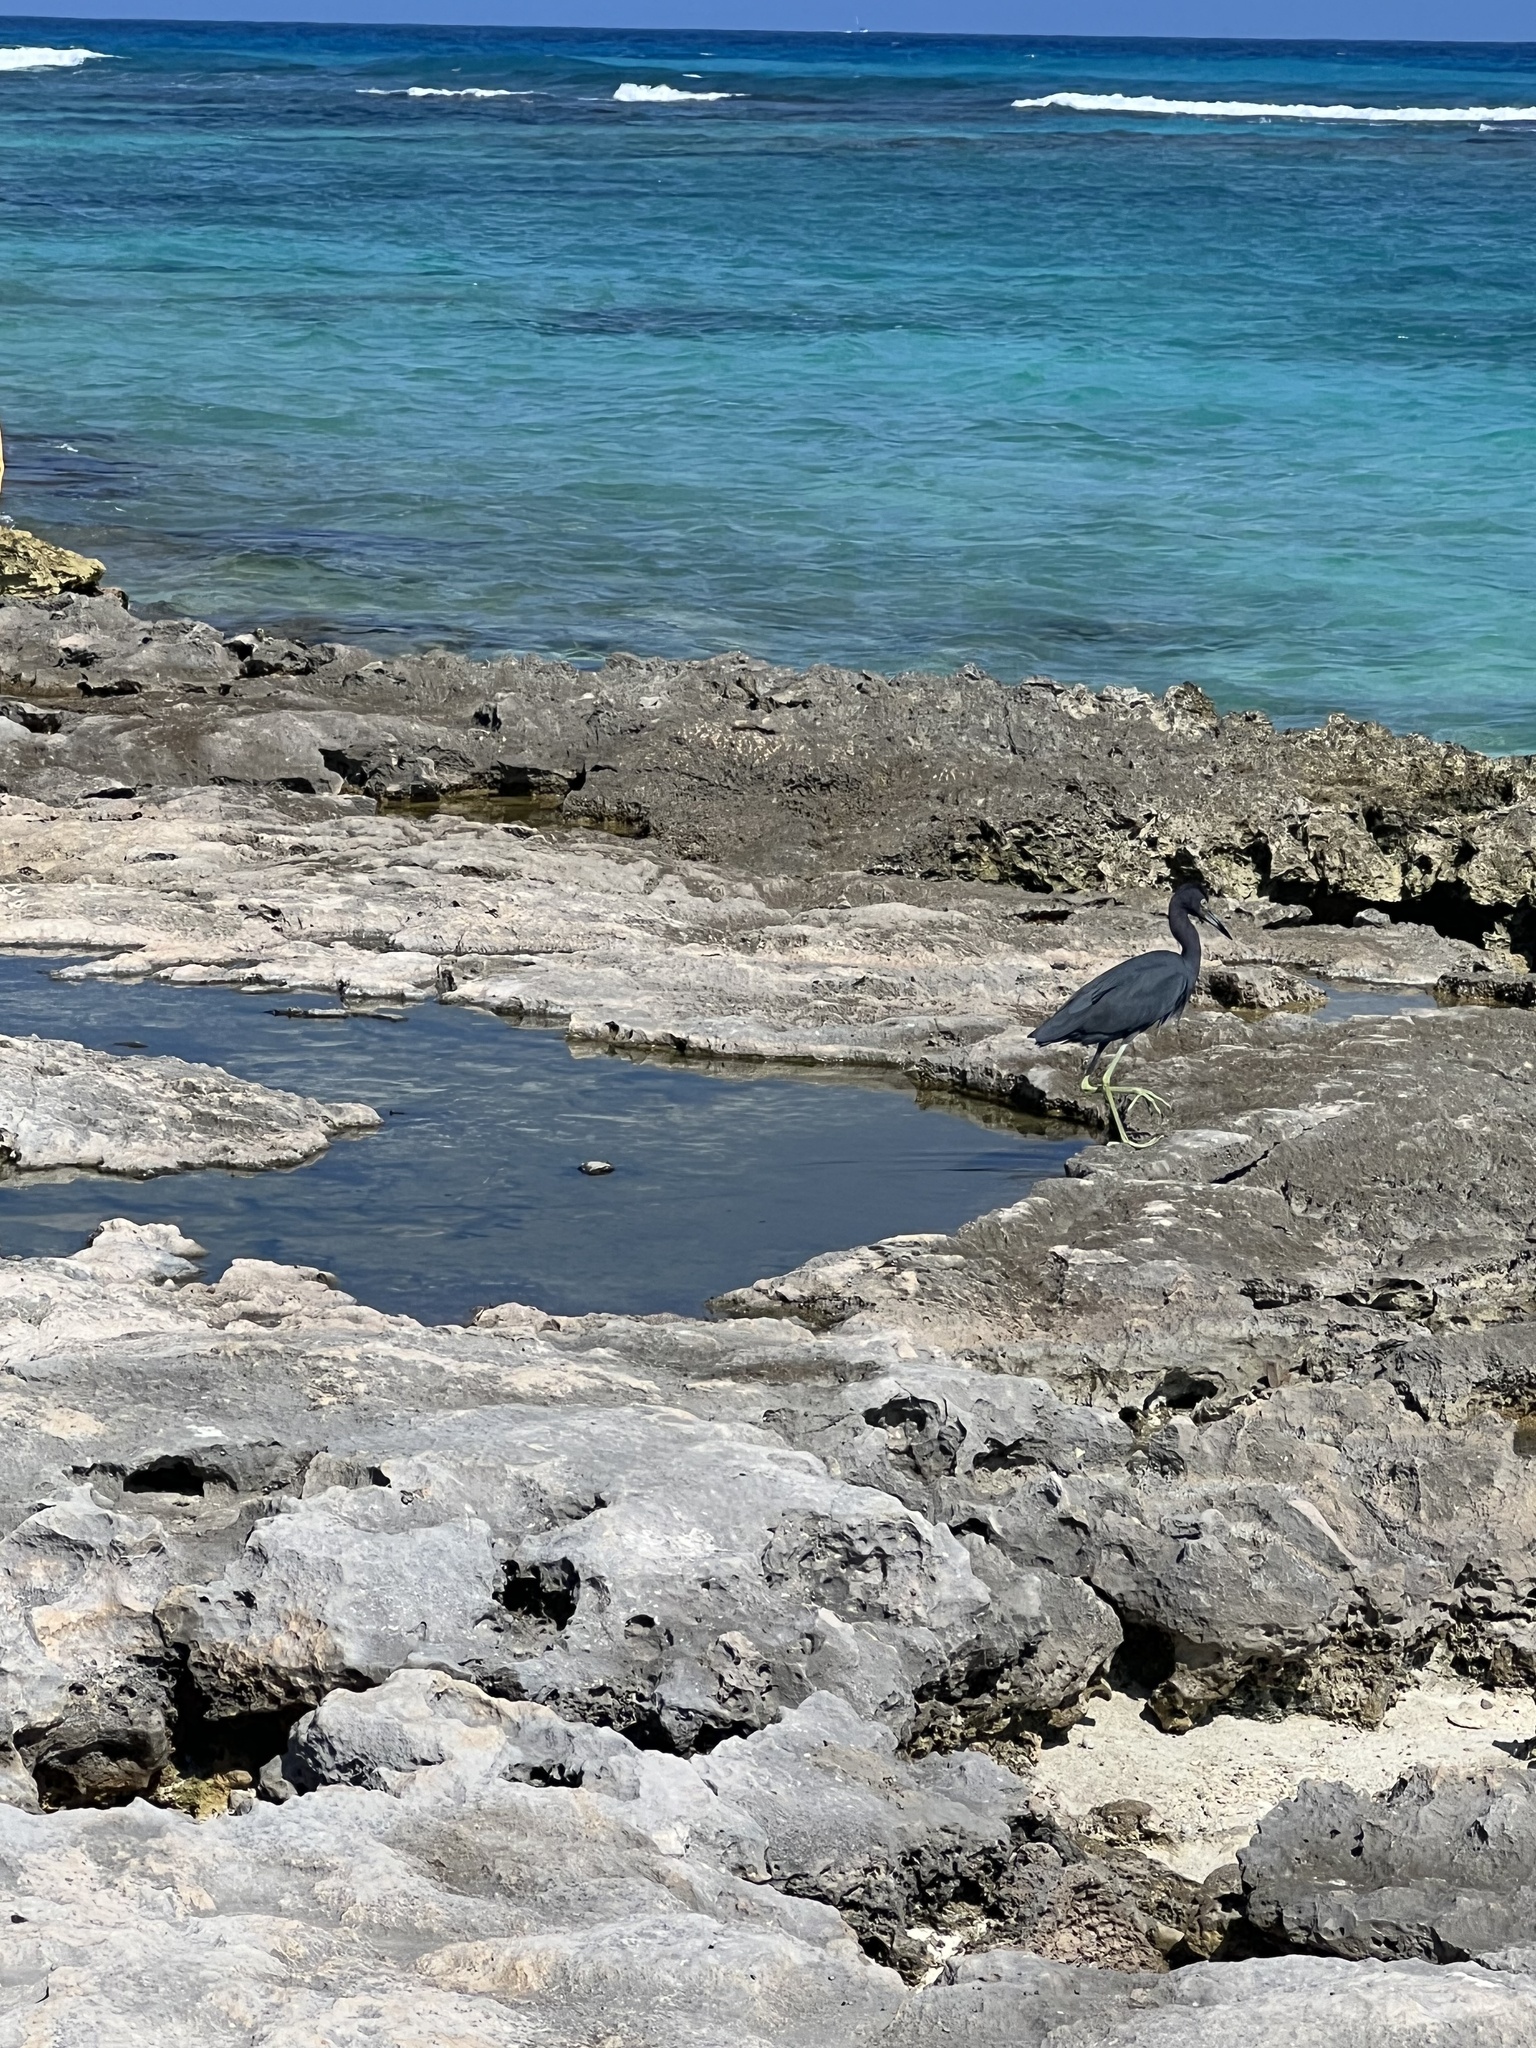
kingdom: Animalia
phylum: Chordata
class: Aves
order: Pelecaniformes
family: Ardeidae
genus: Egretta
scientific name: Egretta caerulea
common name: Little blue heron
